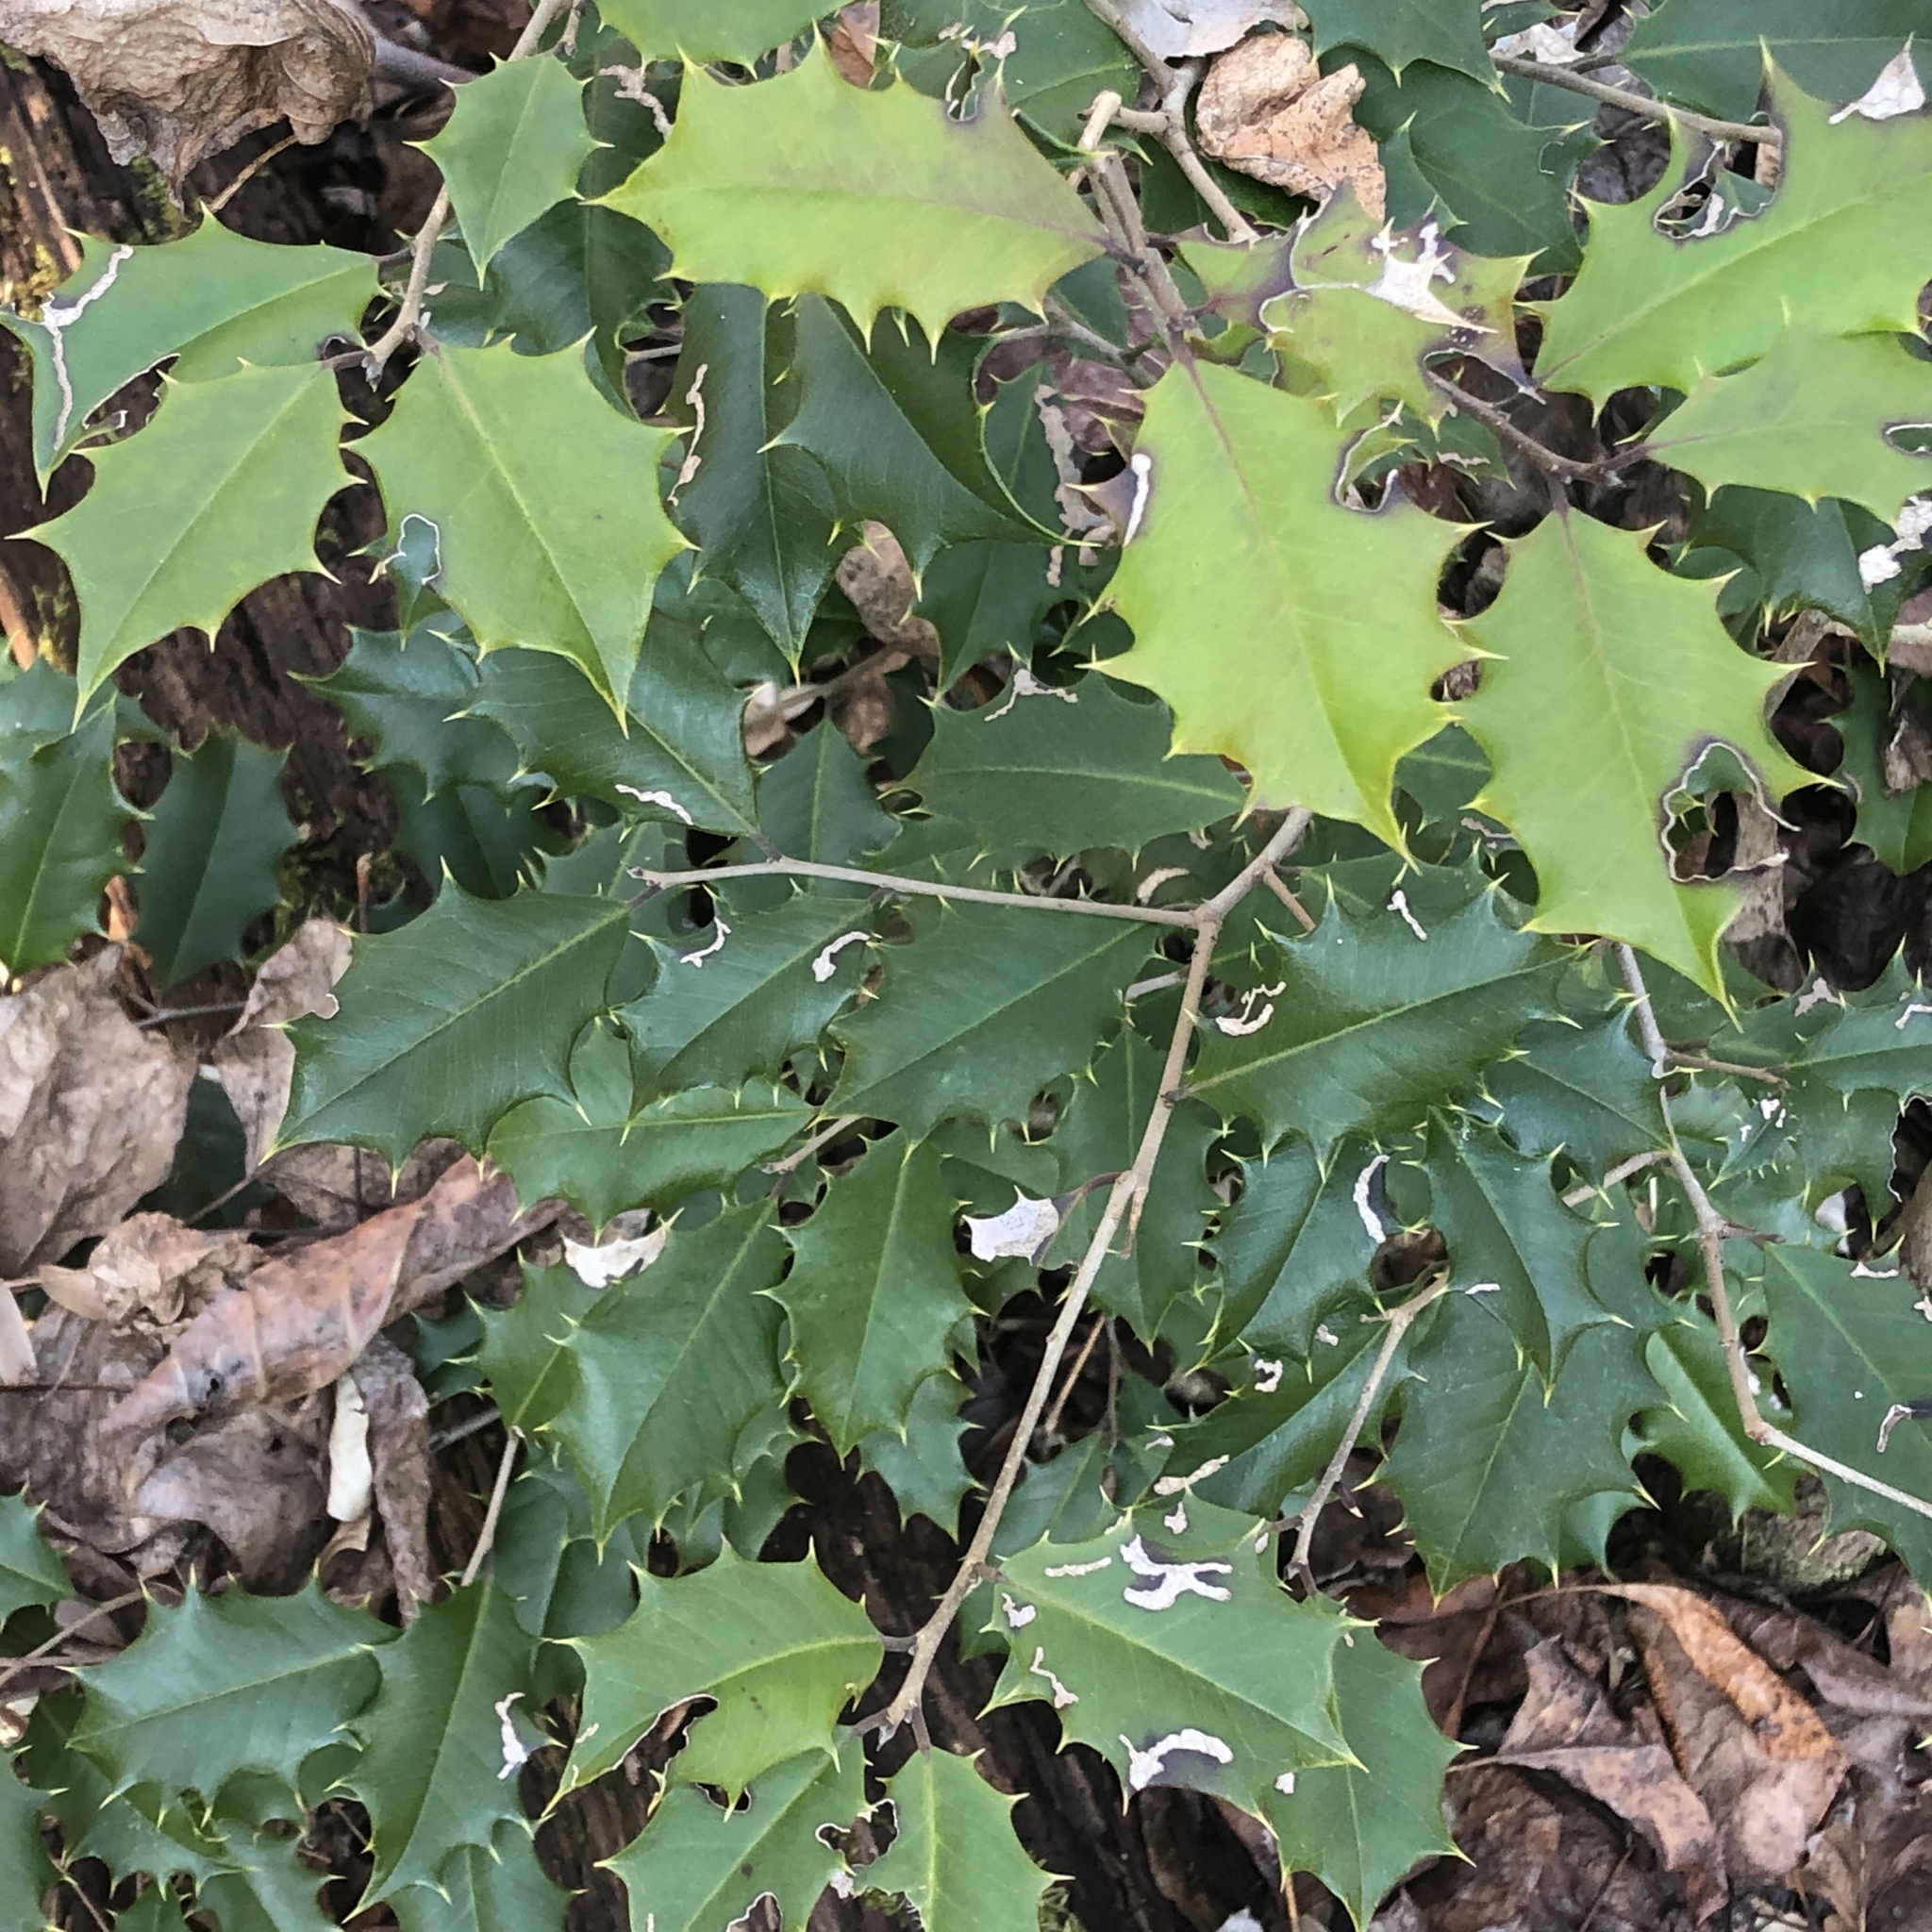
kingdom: Plantae
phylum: Tracheophyta
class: Magnoliopsida
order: Aquifoliales
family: Aquifoliaceae
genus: Ilex
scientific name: Ilex opaca
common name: American holly
